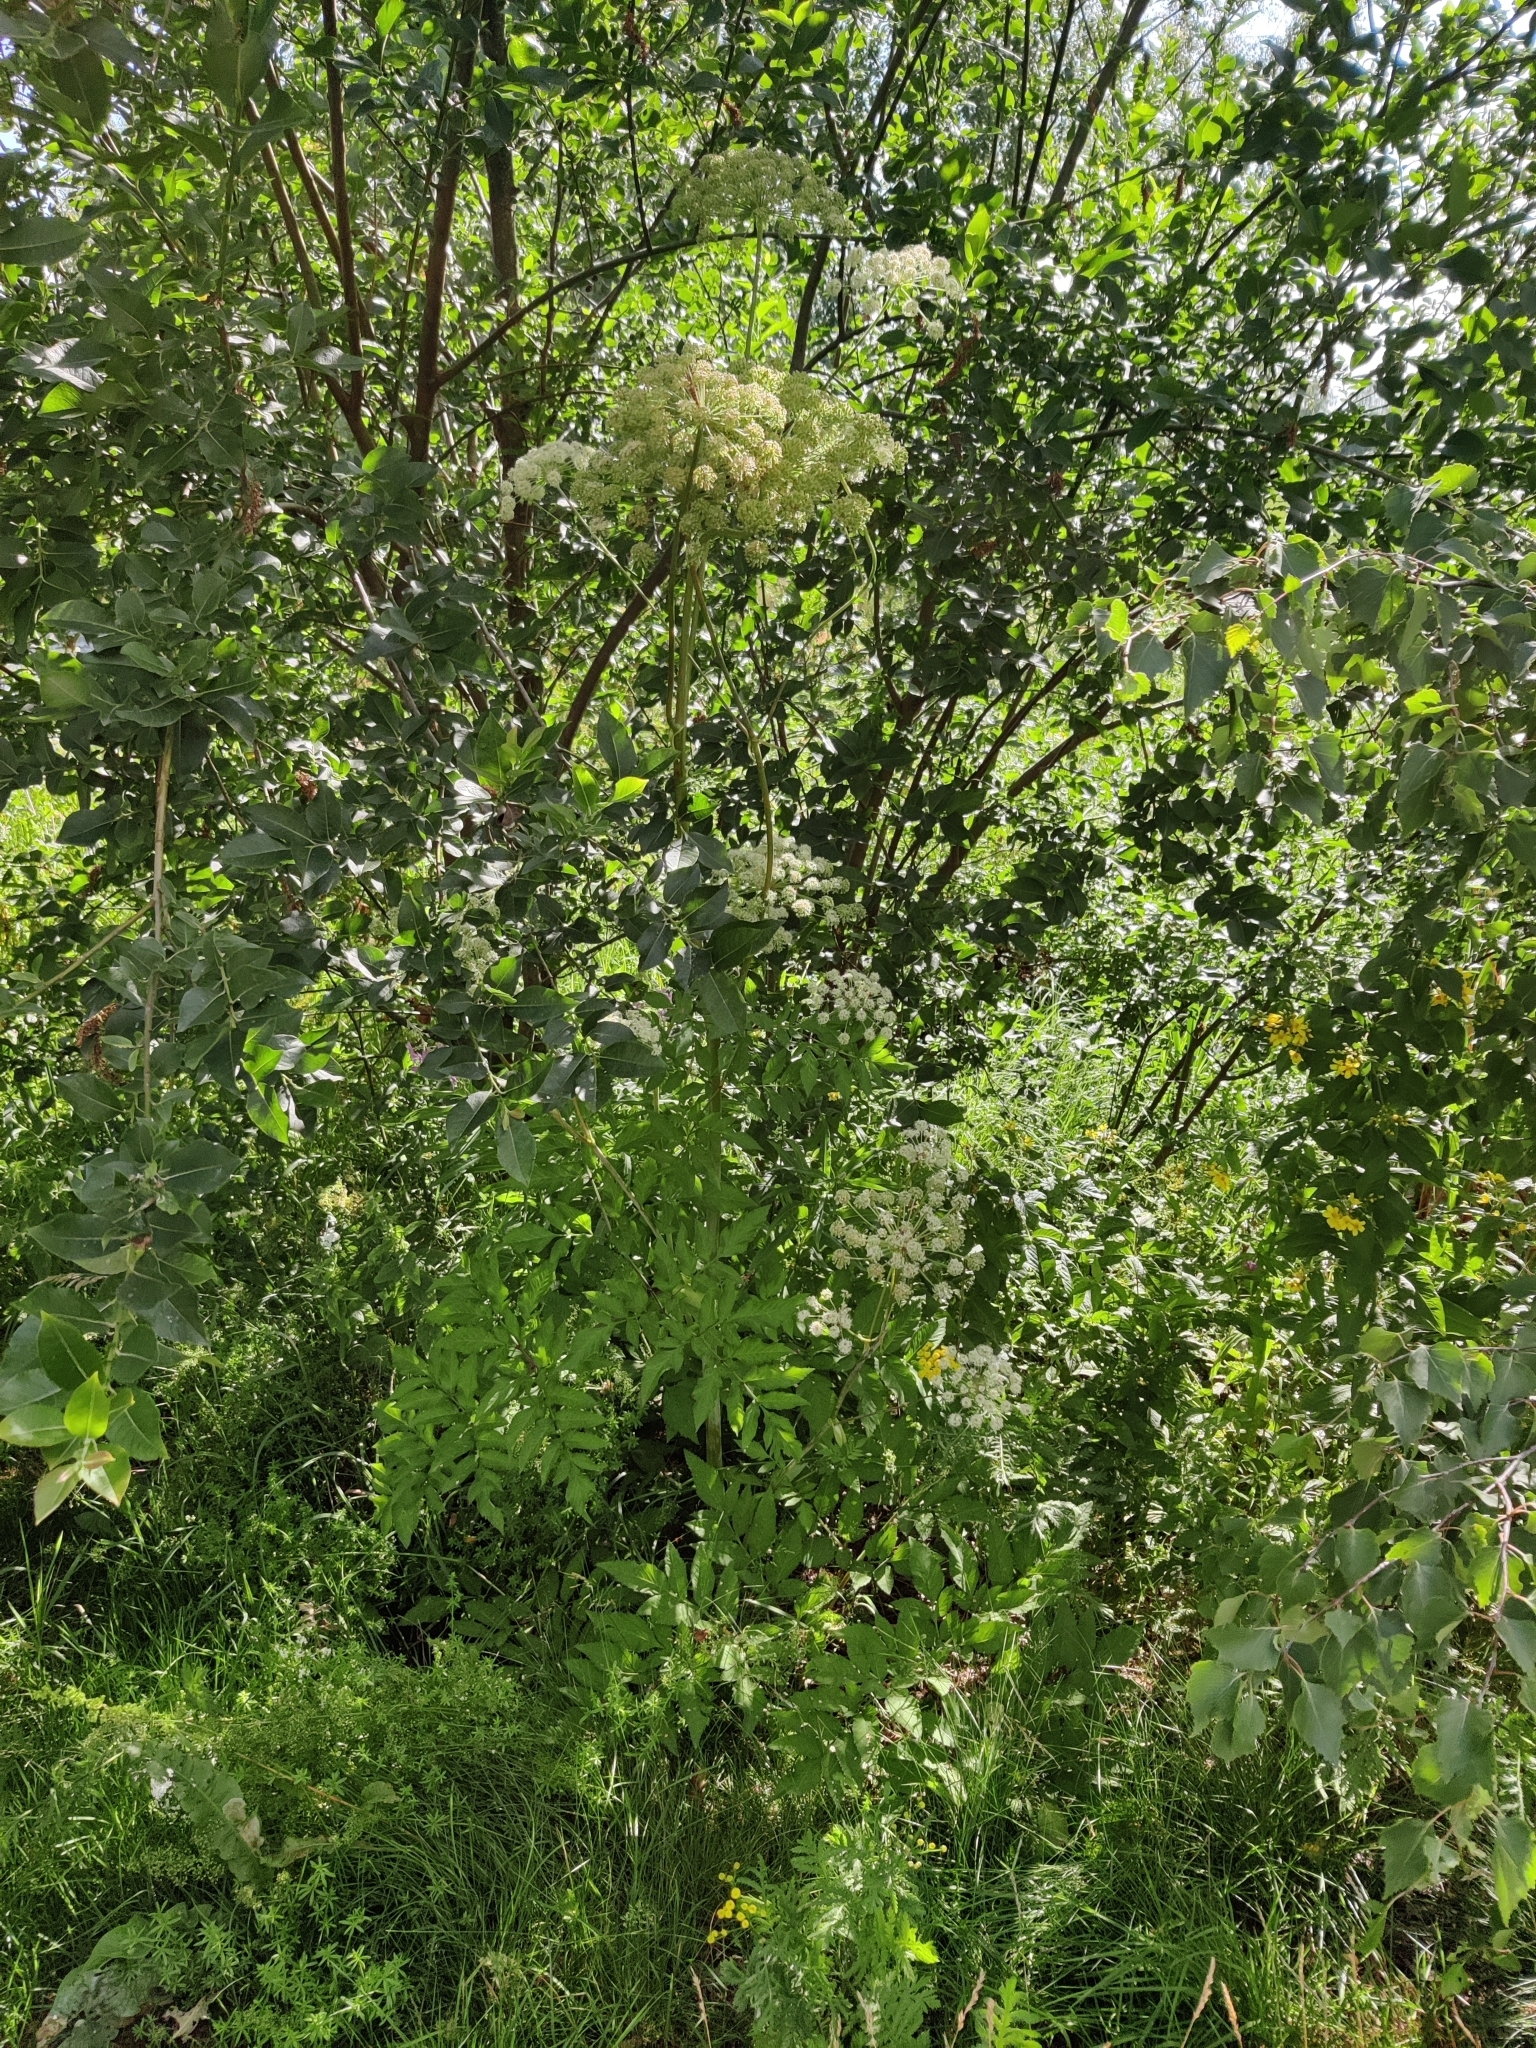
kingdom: Plantae
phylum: Tracheophyta
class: Magnoliopsida
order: Apiales
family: Apiaceae
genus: Angelica
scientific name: Angelica sylvestris
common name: Wild angelica
